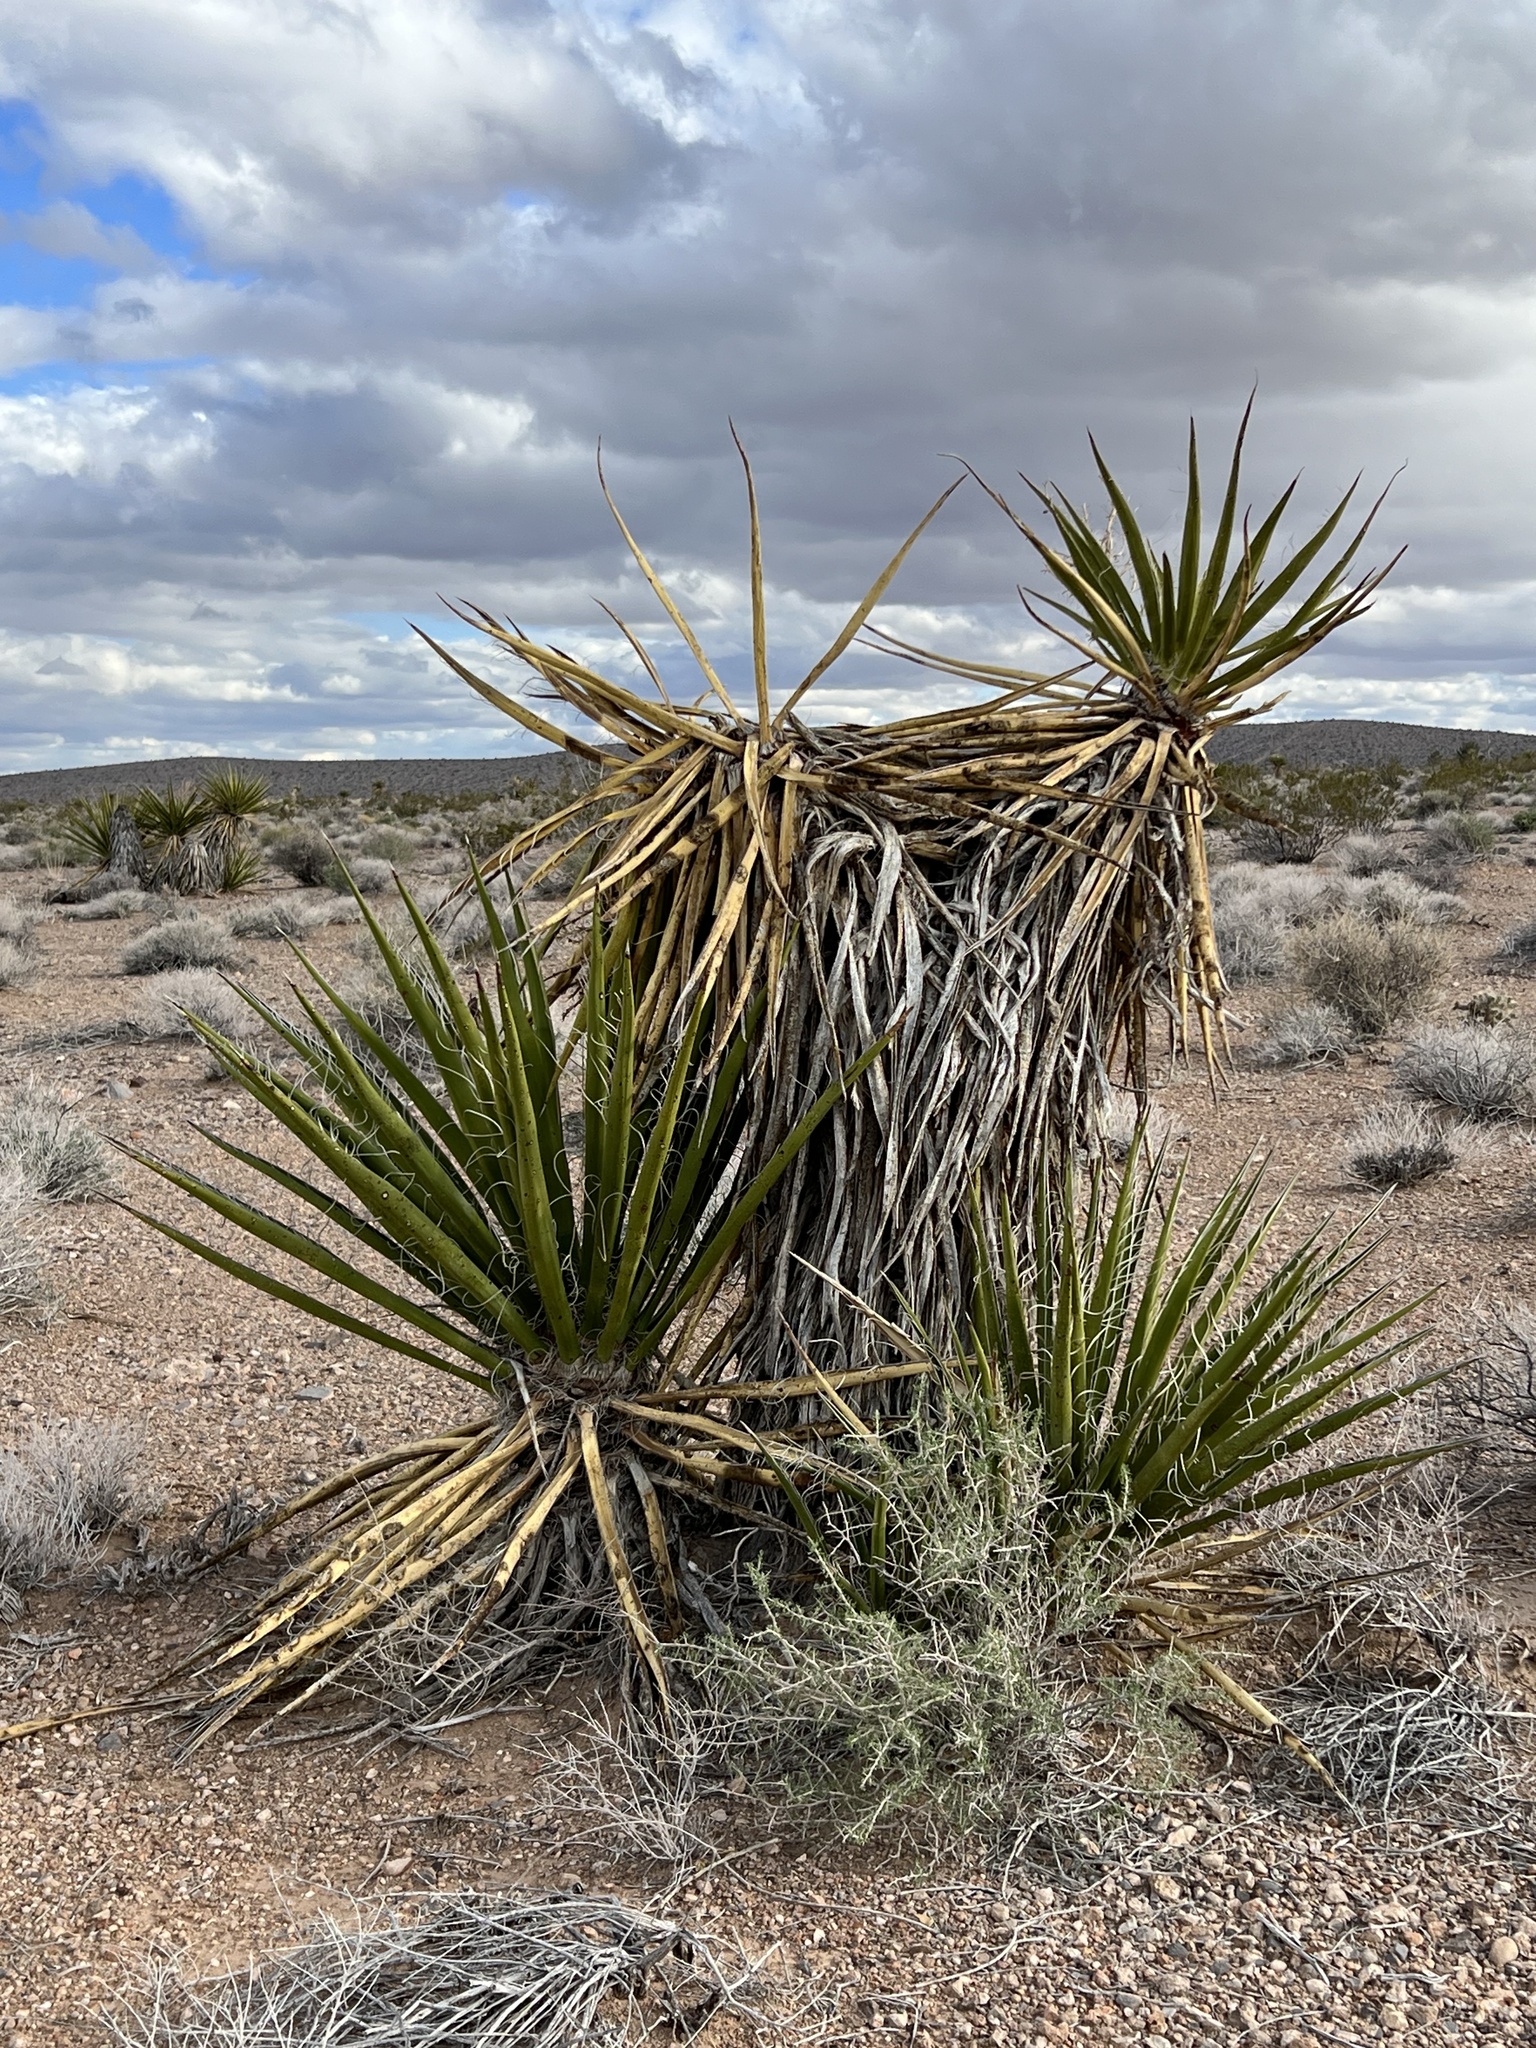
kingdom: Plantae
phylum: Tracheophyta
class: Liliopsida
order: Asparagales
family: Asparagaceae
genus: Yucca
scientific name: Yucca schidigera
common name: Mojave yucca
